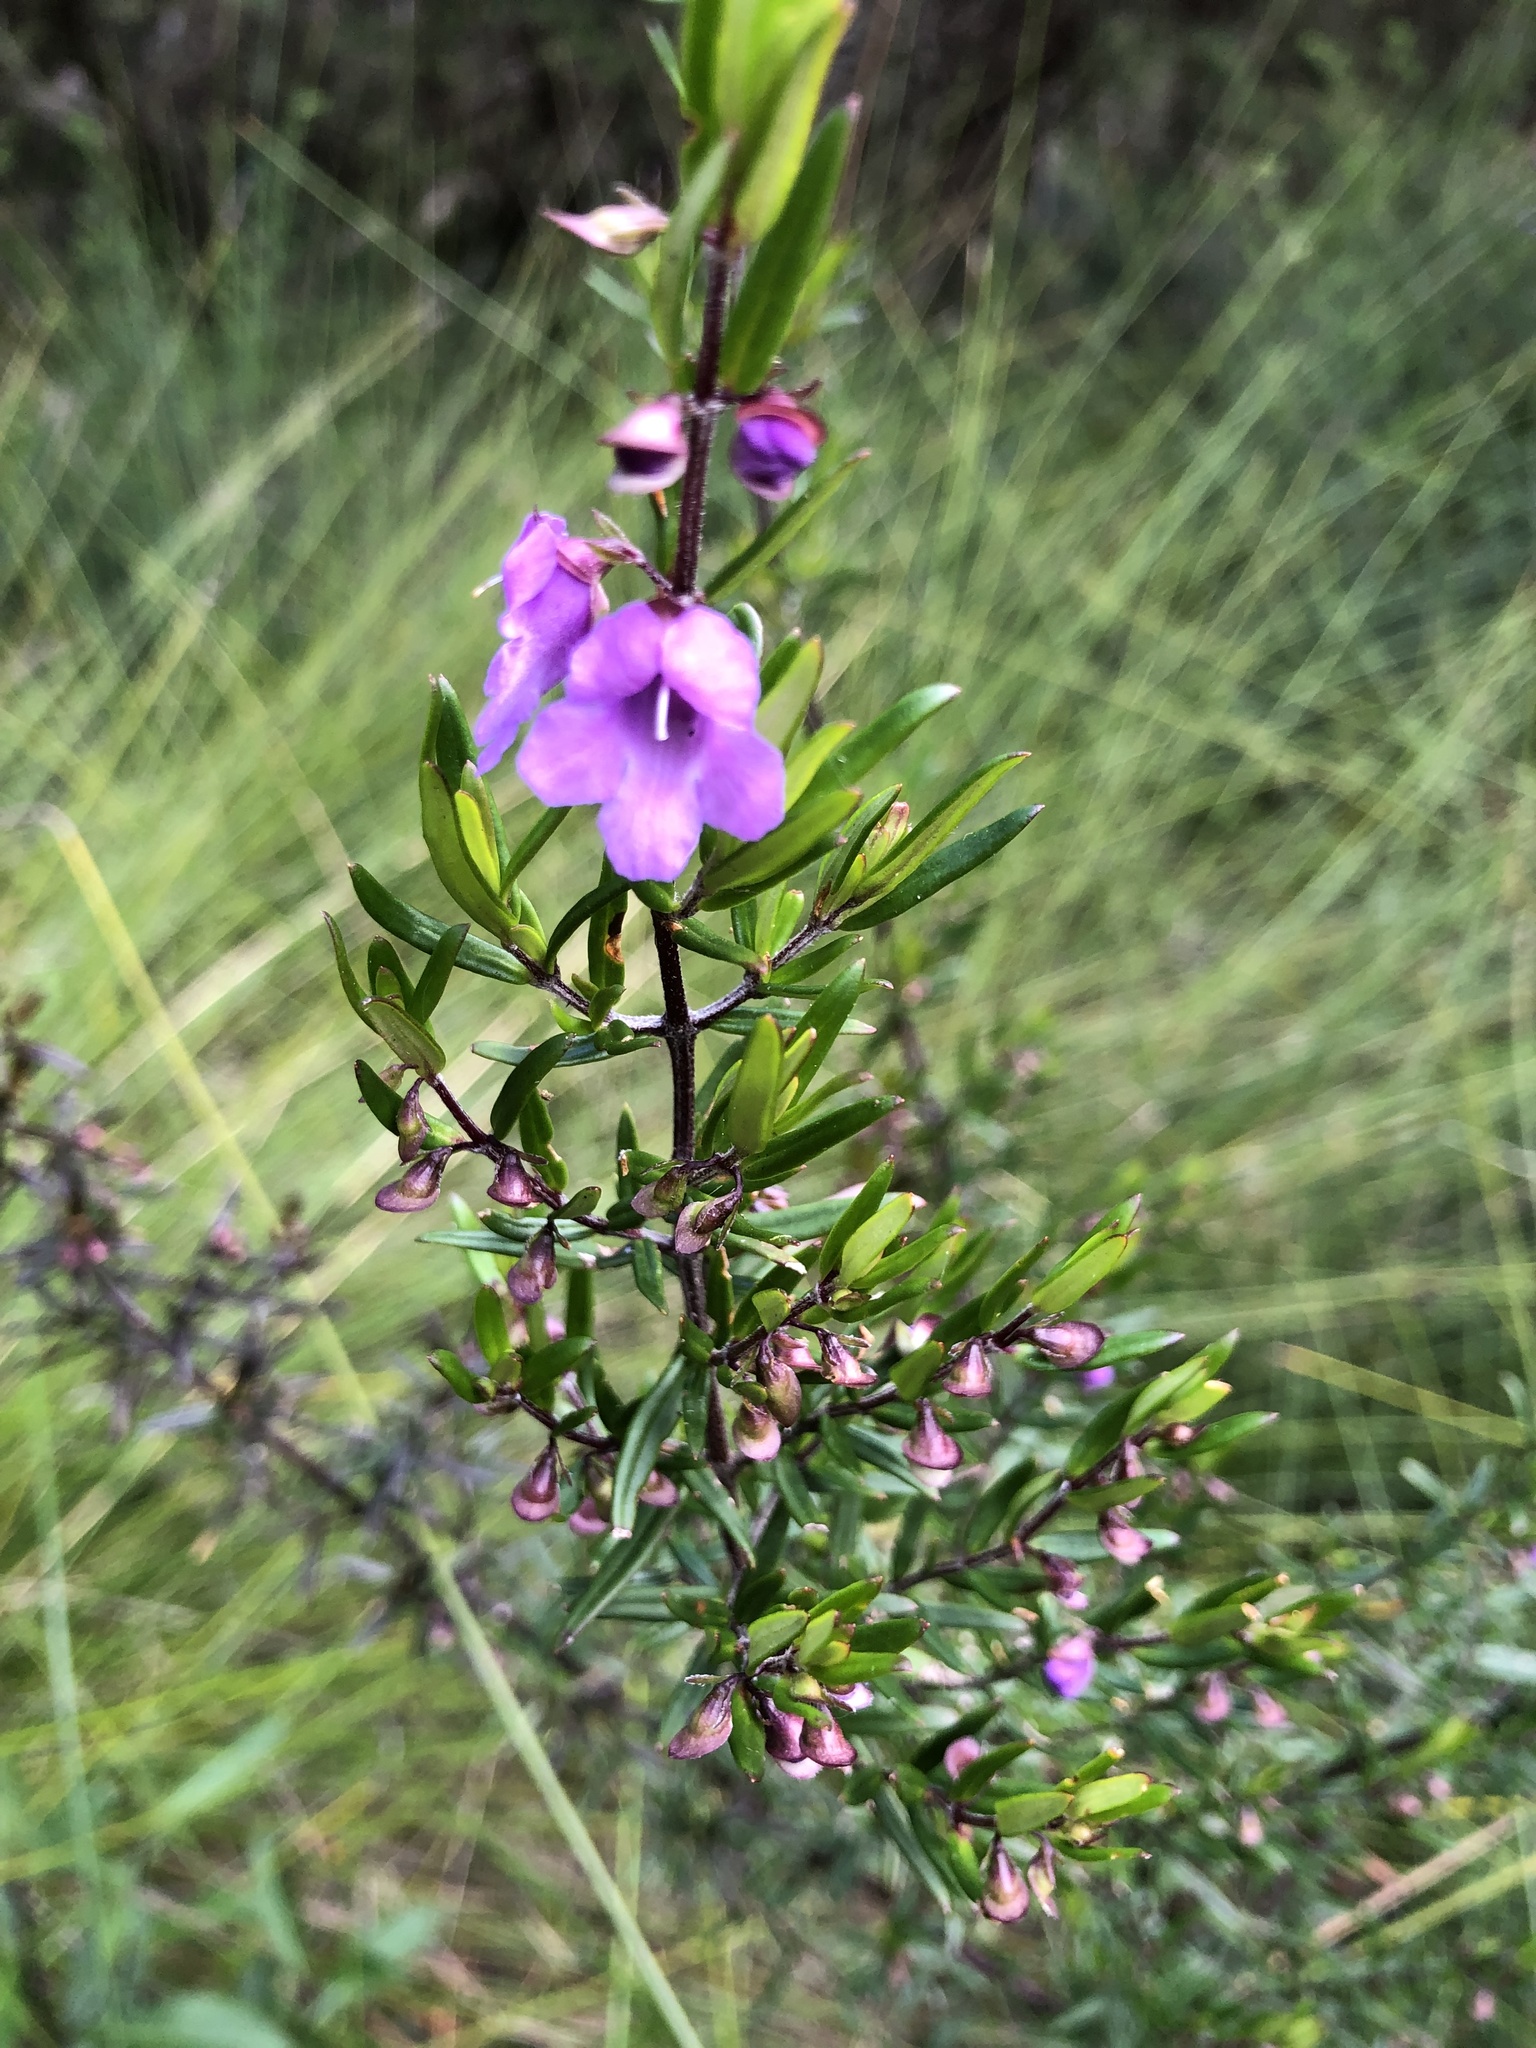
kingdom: Plantae
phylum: Tracheophyta
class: Magnoliopsida
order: Lamiales
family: Lamiaceae
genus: Prostanthera
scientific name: Prostanthera scutellarioides
